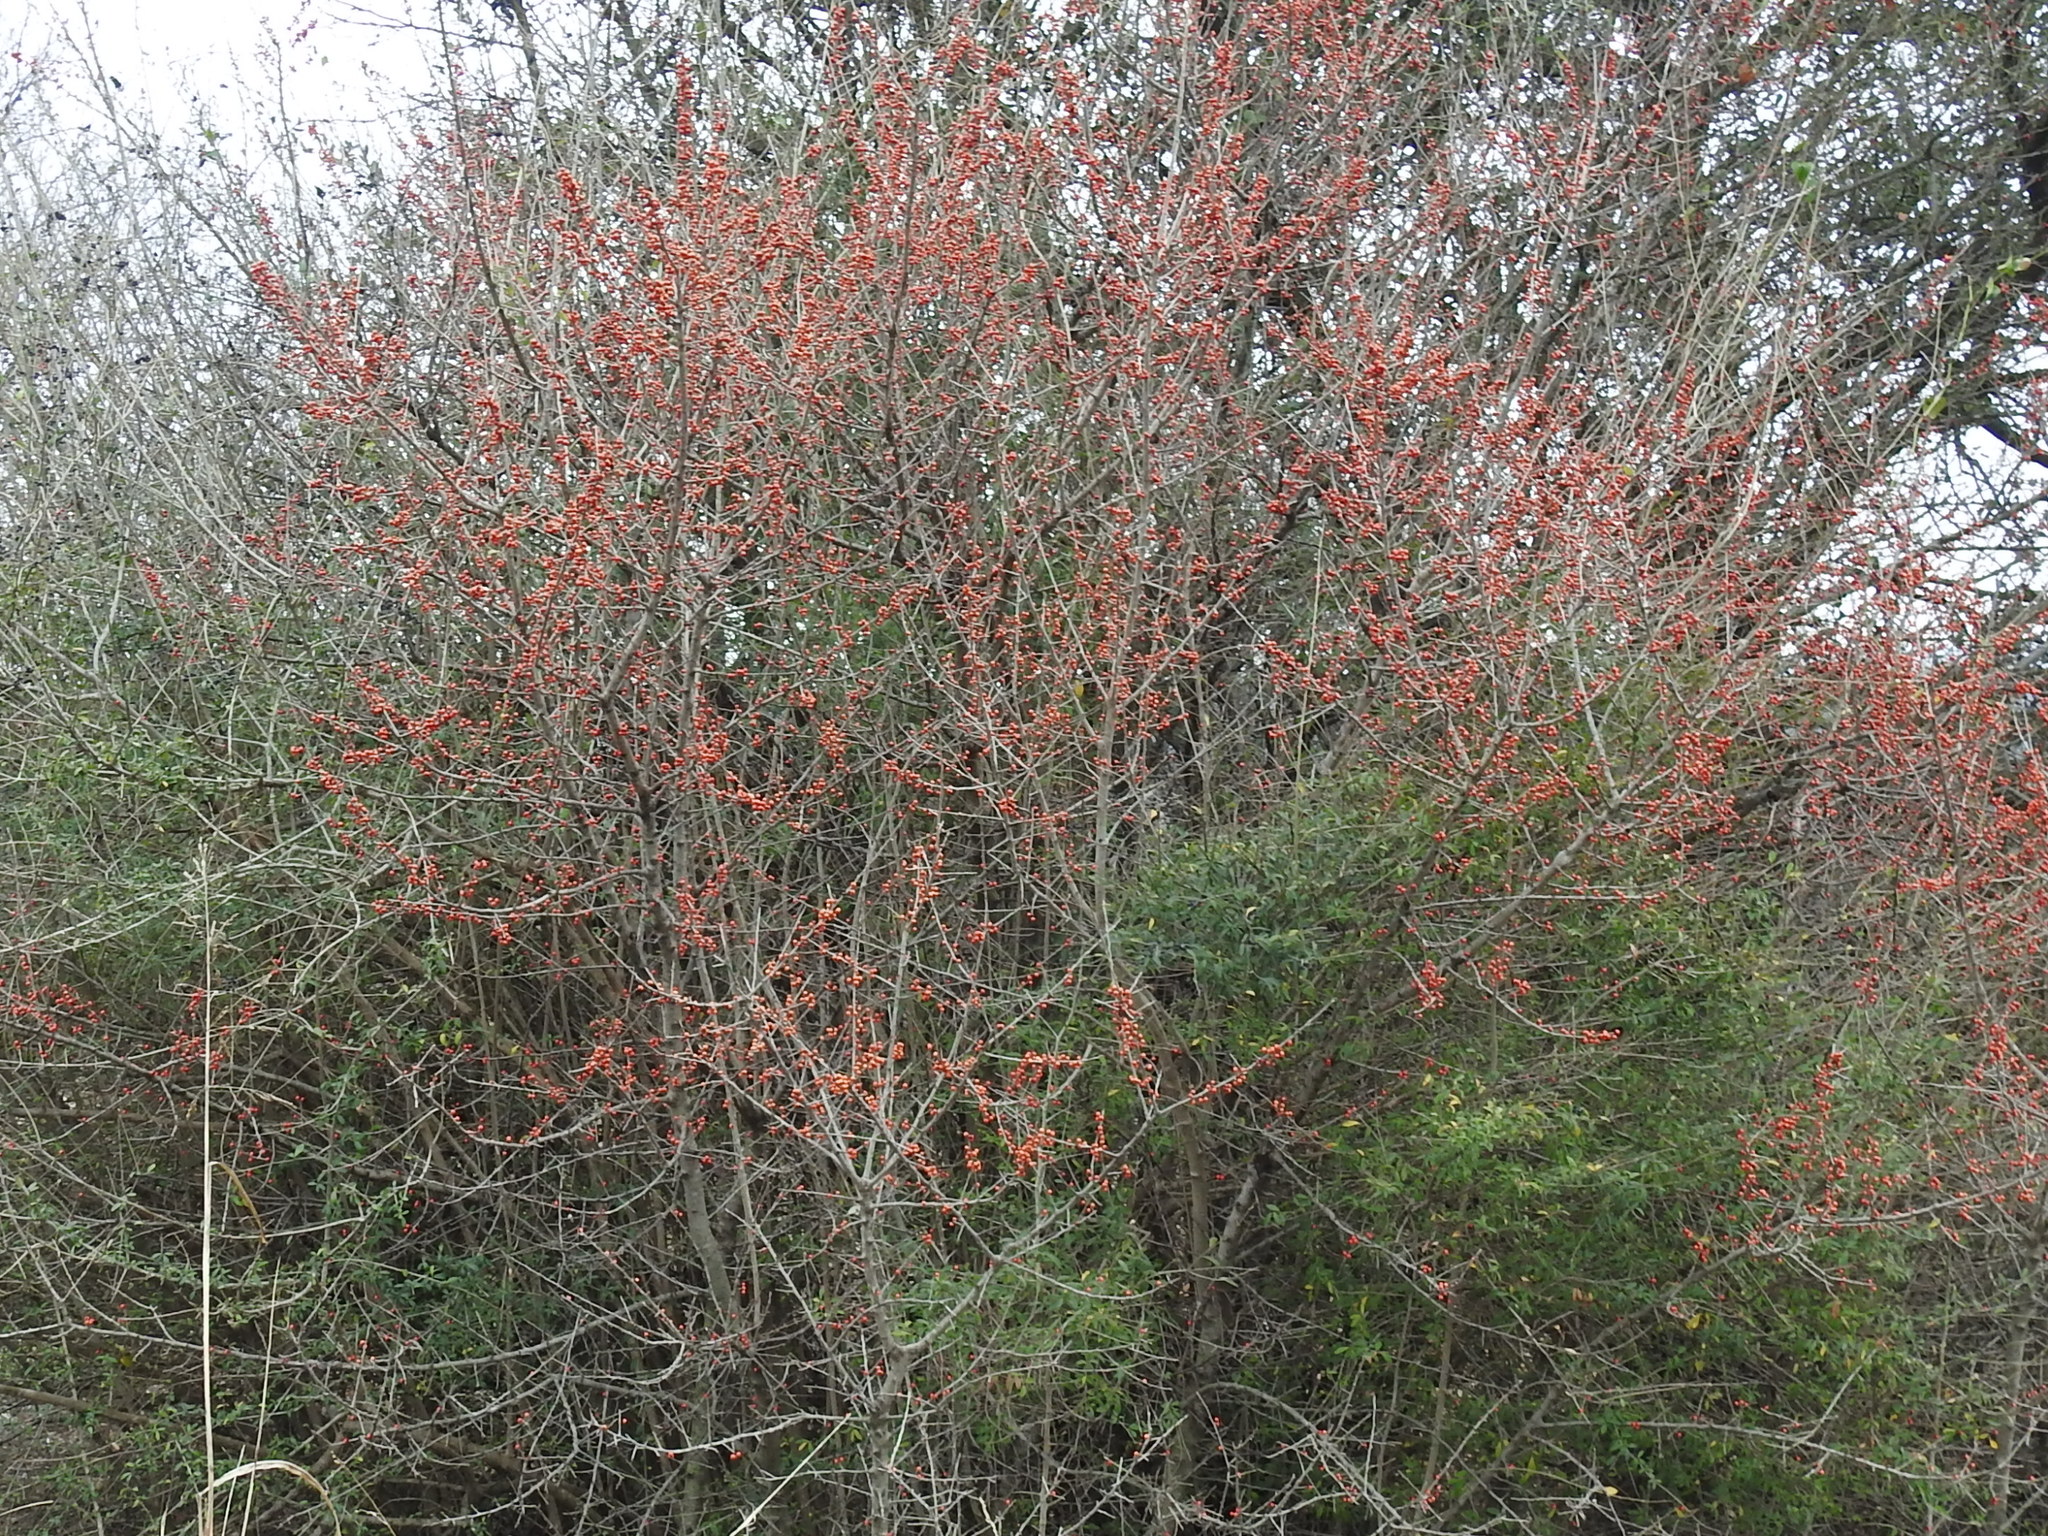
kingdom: Plantae
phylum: Tracheophyta
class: Magnoliopsida
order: Aquifoliales
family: Aquifoliaceae
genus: Ilex
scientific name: Ilex decidua
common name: Possum-haw
